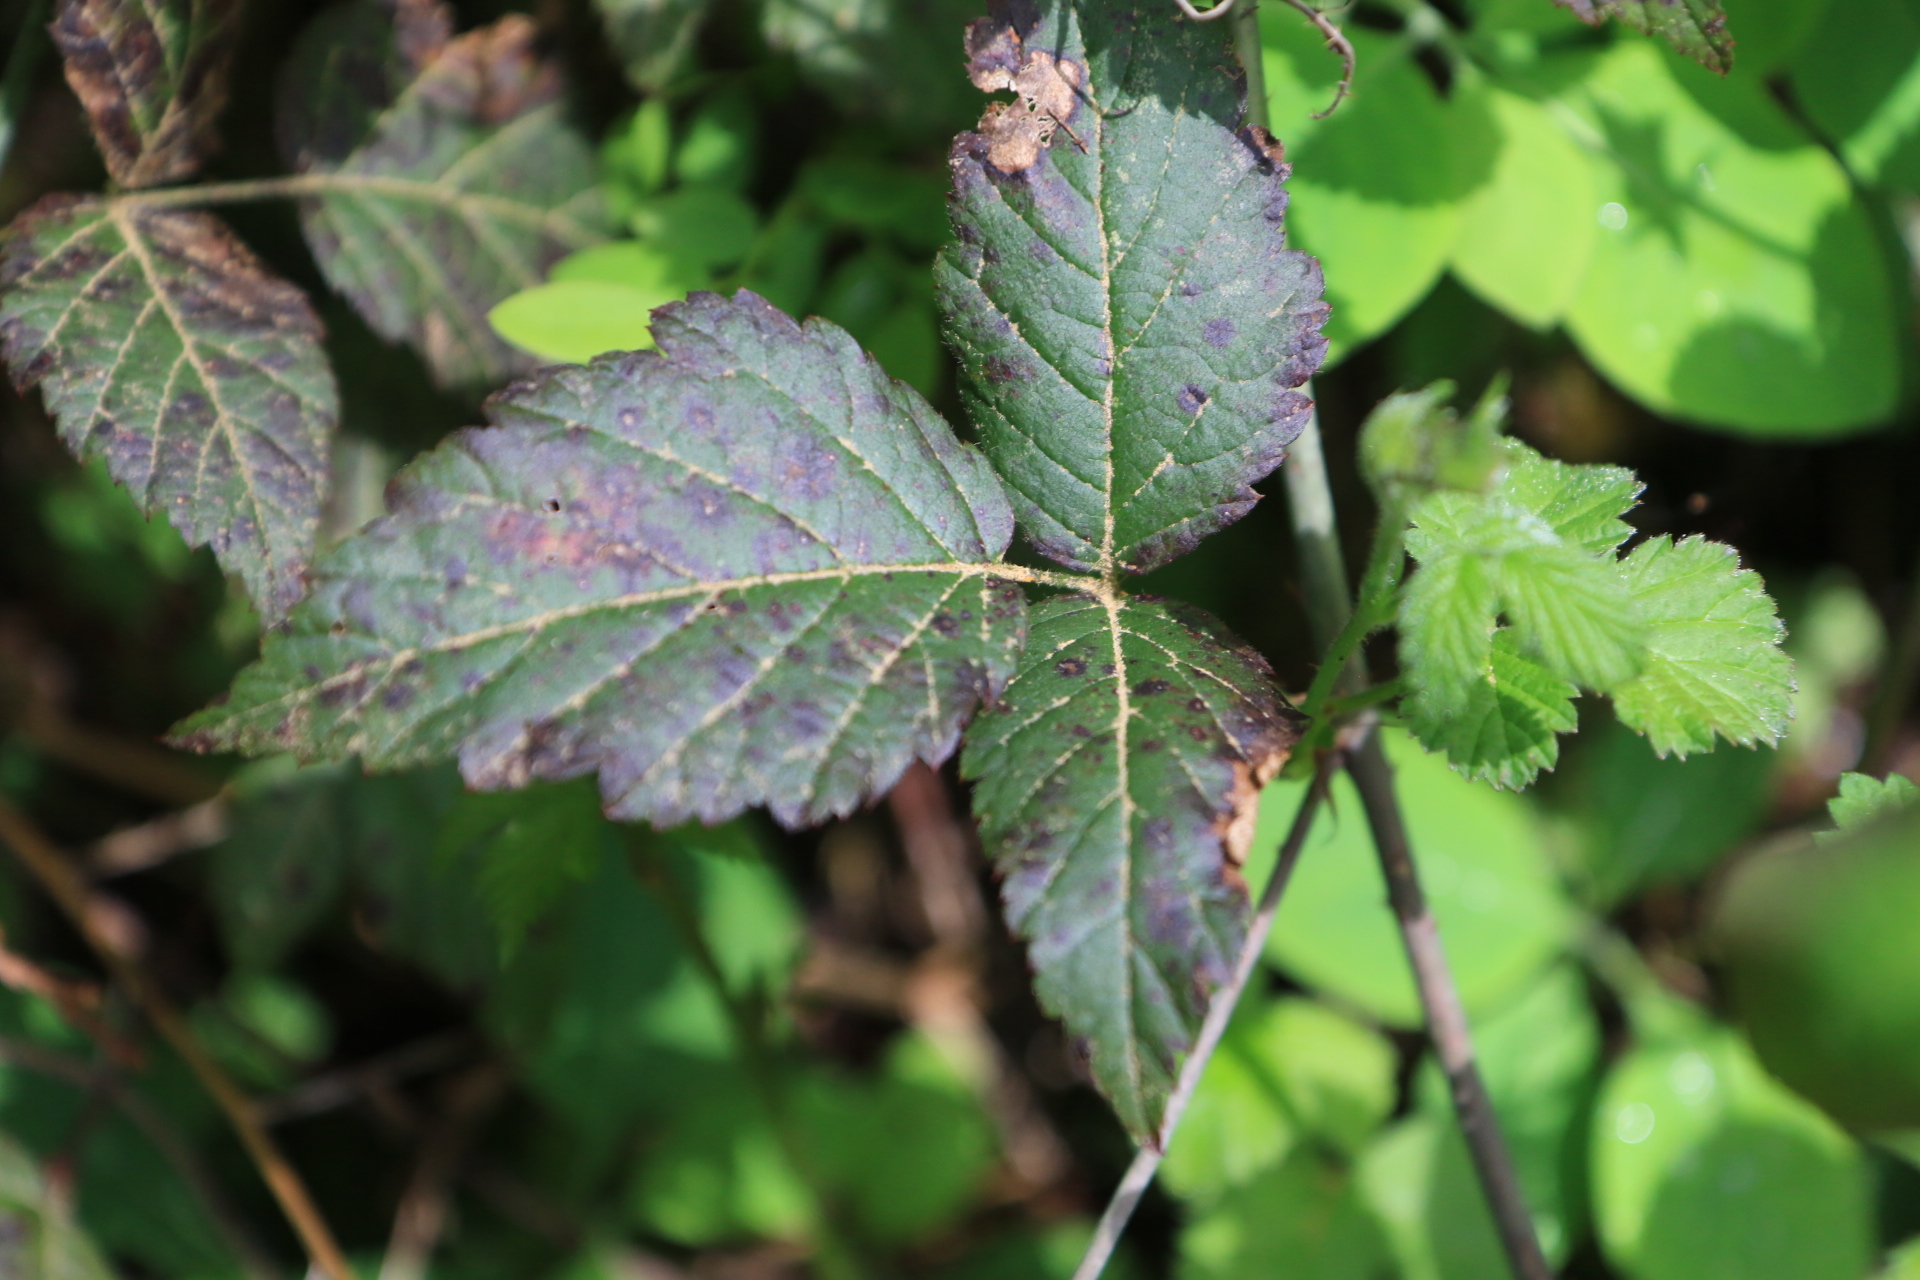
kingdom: Plantae
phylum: Tracheophyta
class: Magnoliopsida
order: Rosales
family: Rosaceae
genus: Rubus
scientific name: Rubus ursinus
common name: Pacific blackberry
